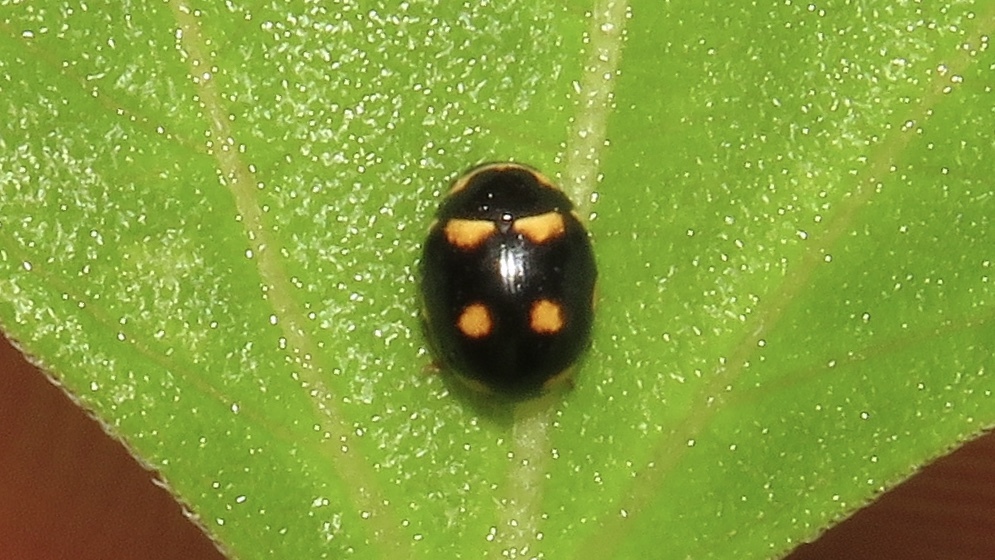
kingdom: Animalia
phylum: Arthropoda
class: Insecta
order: Coleoptera
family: Coccinellidae
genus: Brachiacantha
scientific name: Brachiacantha ursina
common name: Ursine spurleg lady beetle
